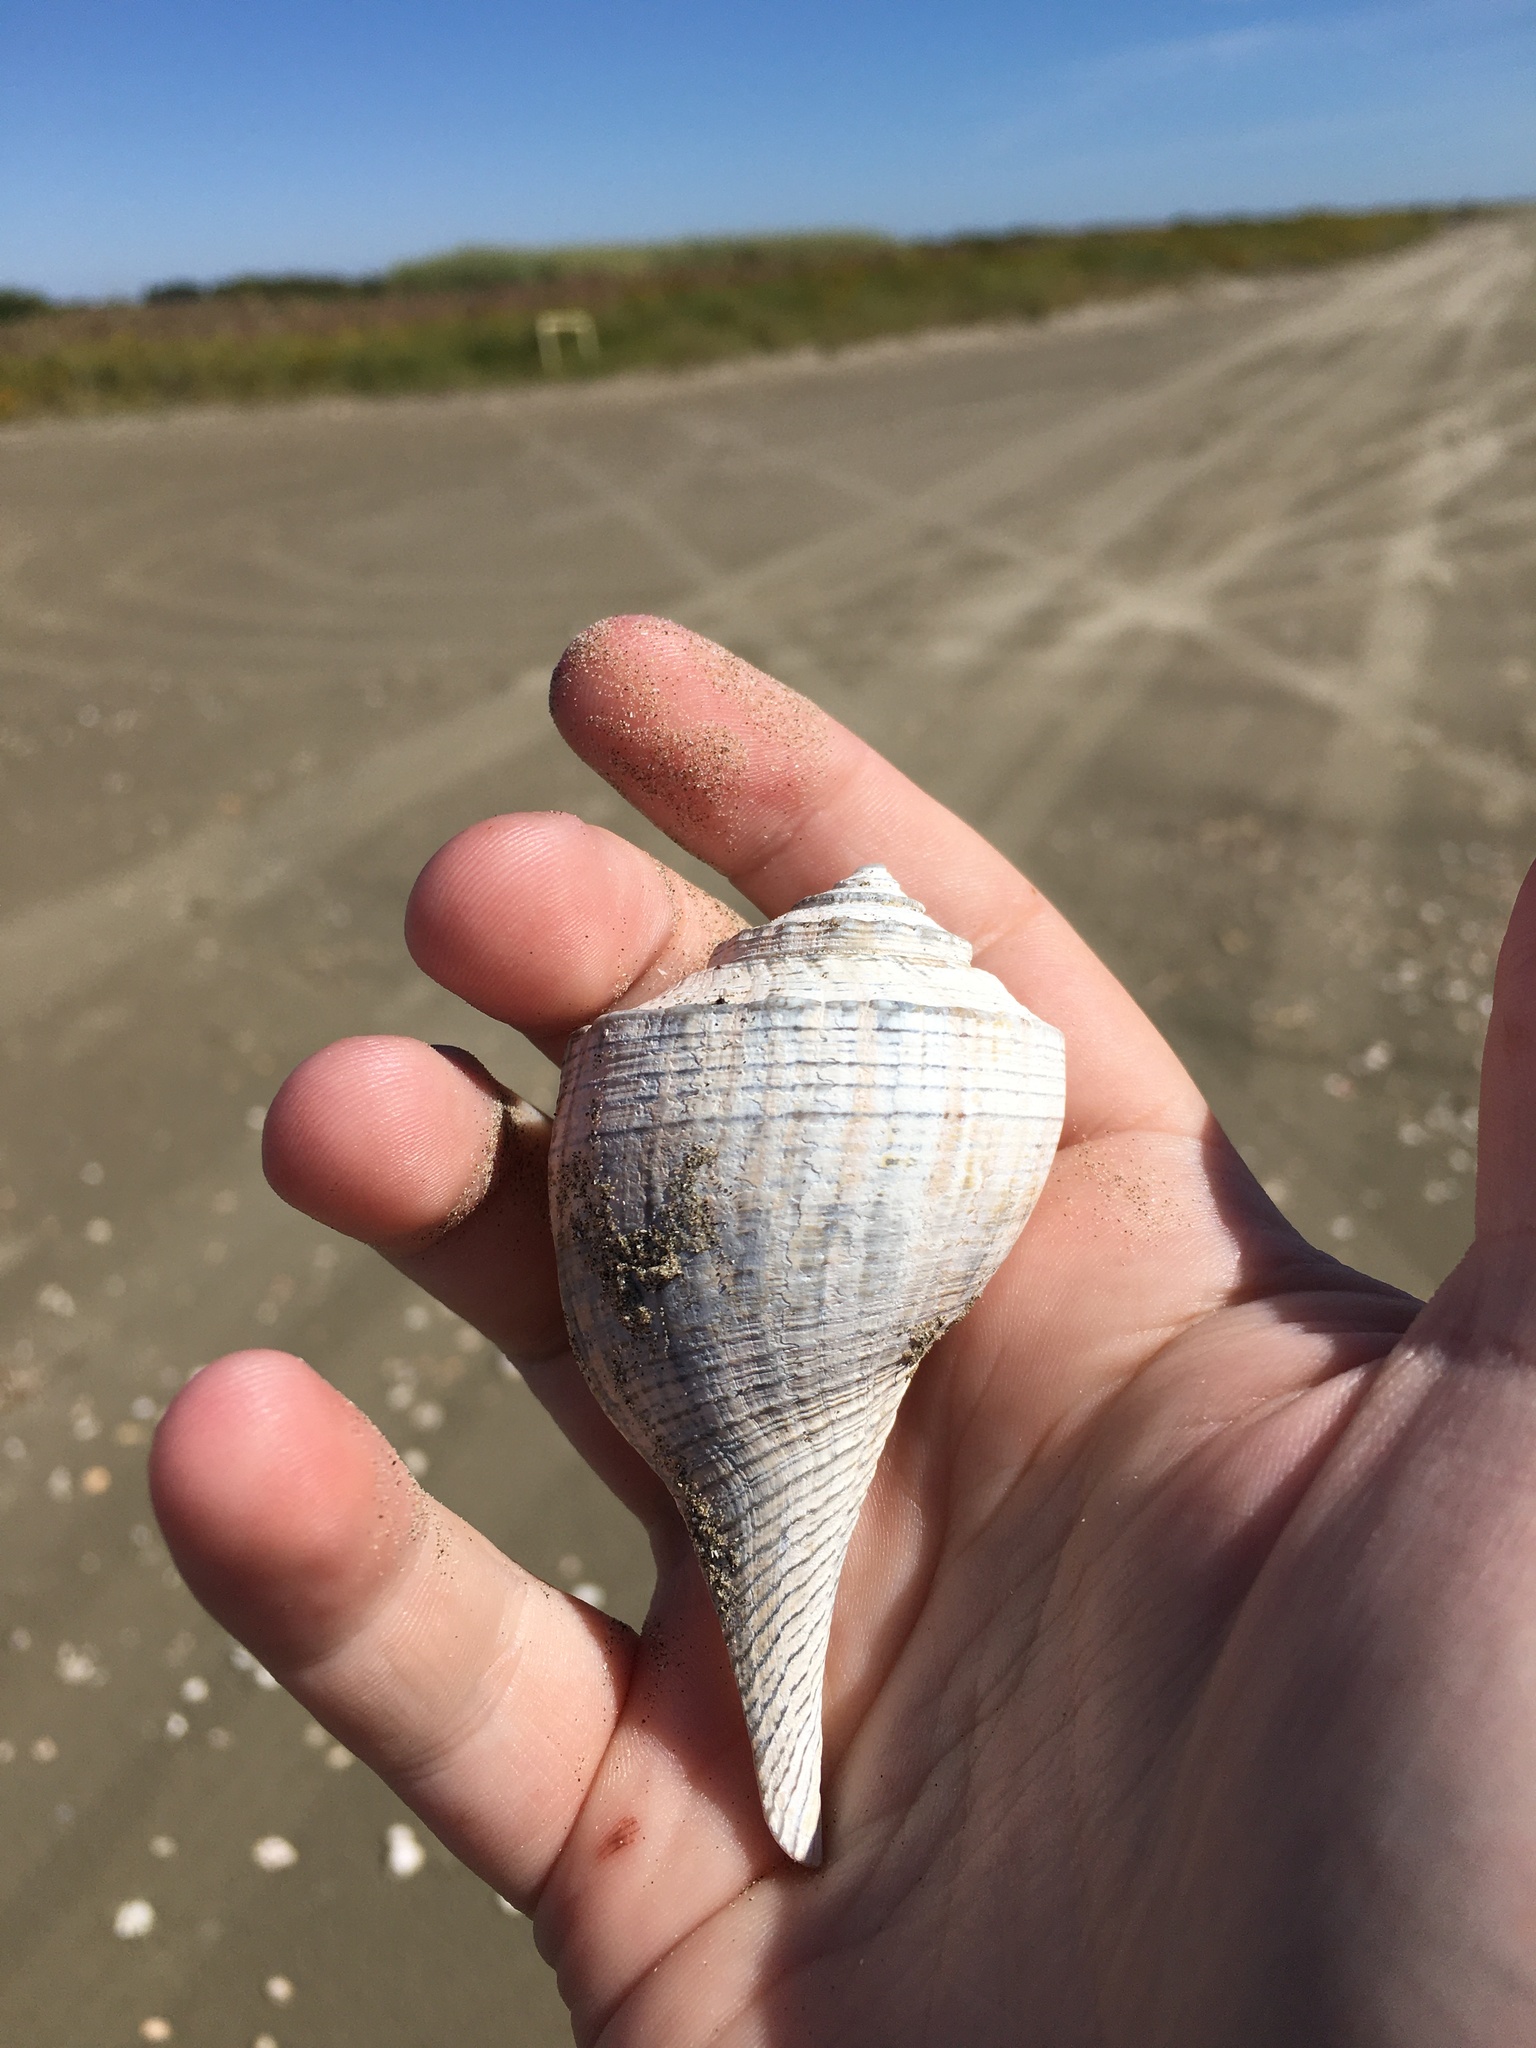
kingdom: Animalia
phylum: Mollusca
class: Gastropoda
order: Neogastropoda
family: Busyconidae
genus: Fulguropsis
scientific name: Fulguropsis plagosa
